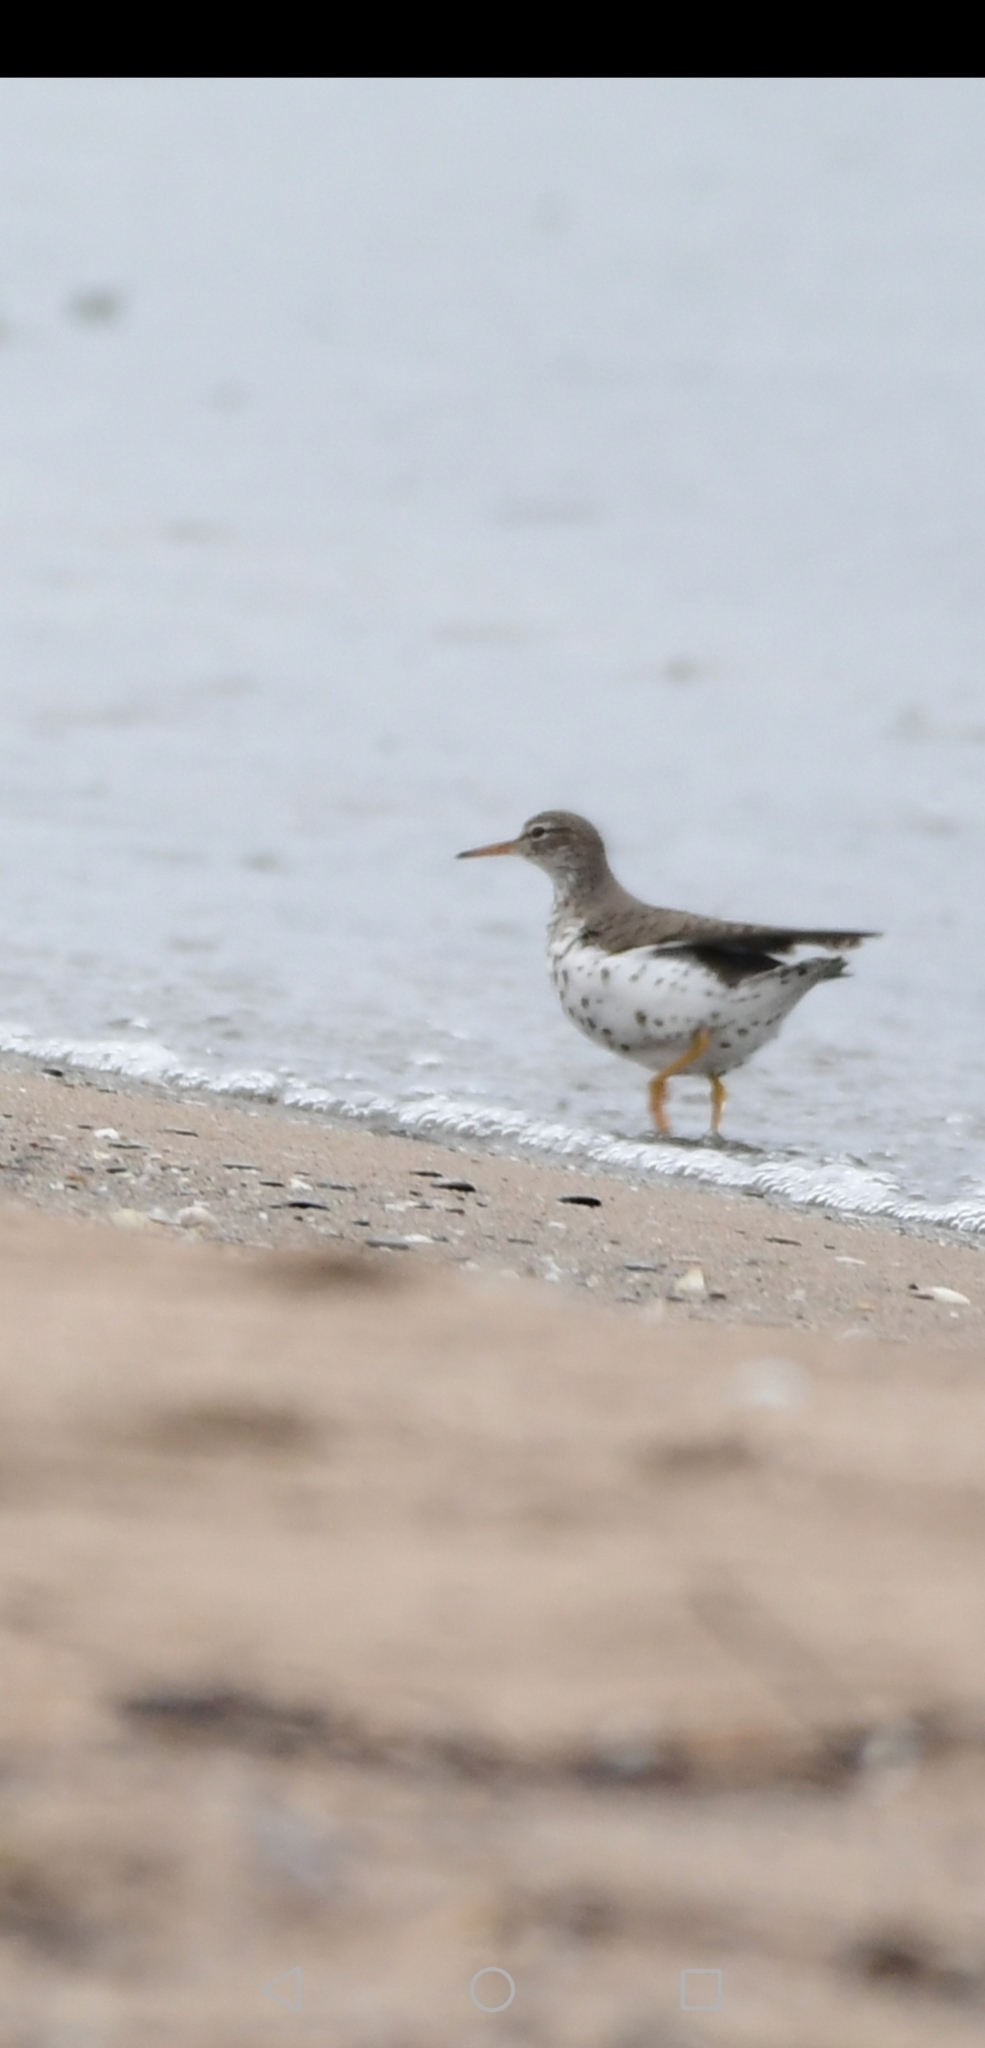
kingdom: Animalia
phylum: Chordata
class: Aves
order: Charadriiformes
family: Scolopacidae
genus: Actitis
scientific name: Actitis macularius
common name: Spotted sandpiper
